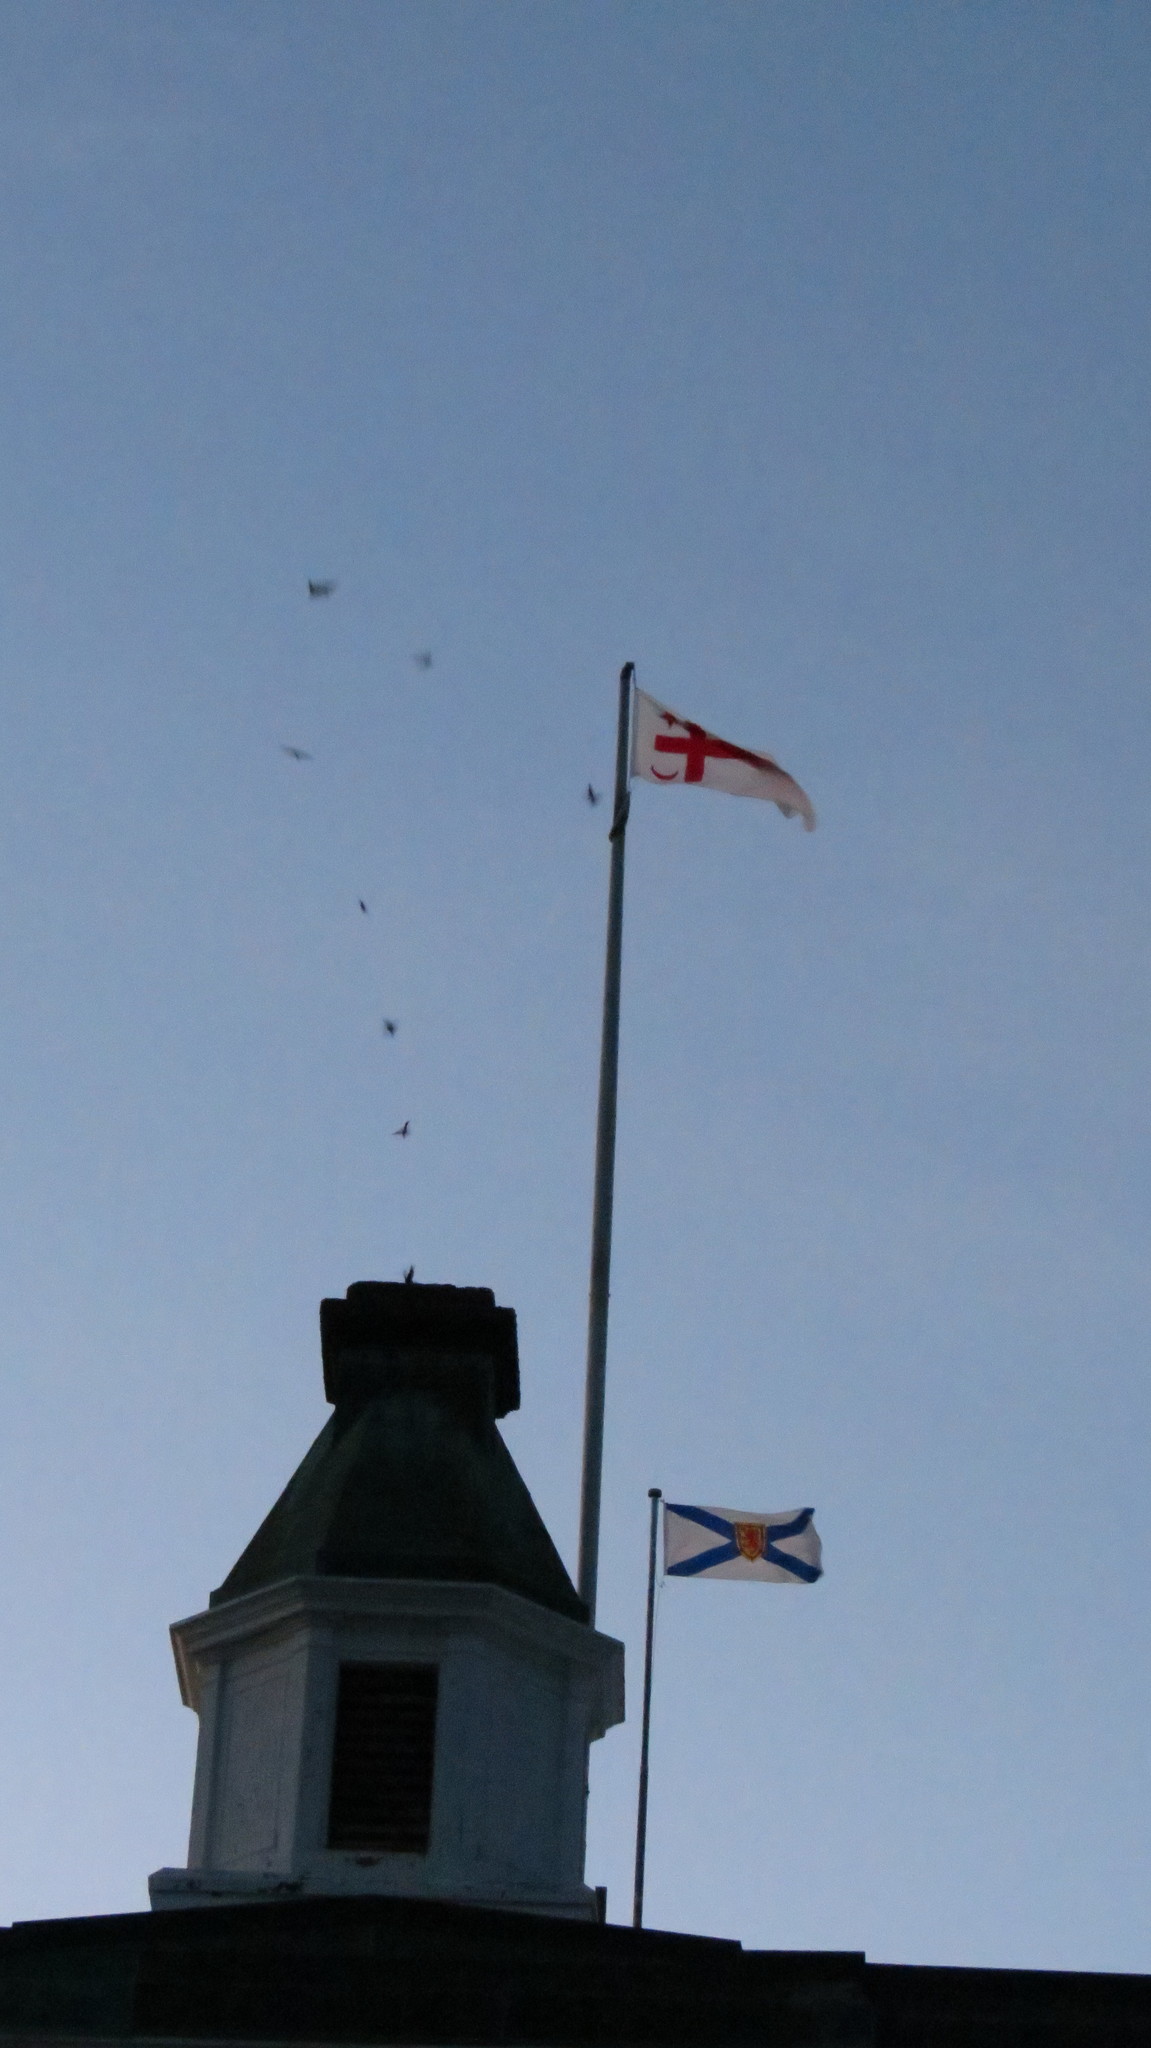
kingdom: Animalia
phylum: Chordata
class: Aves
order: Apodiformes
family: Apodidae
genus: Chaetura
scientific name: Chaetura pelagica
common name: Chimney swift
